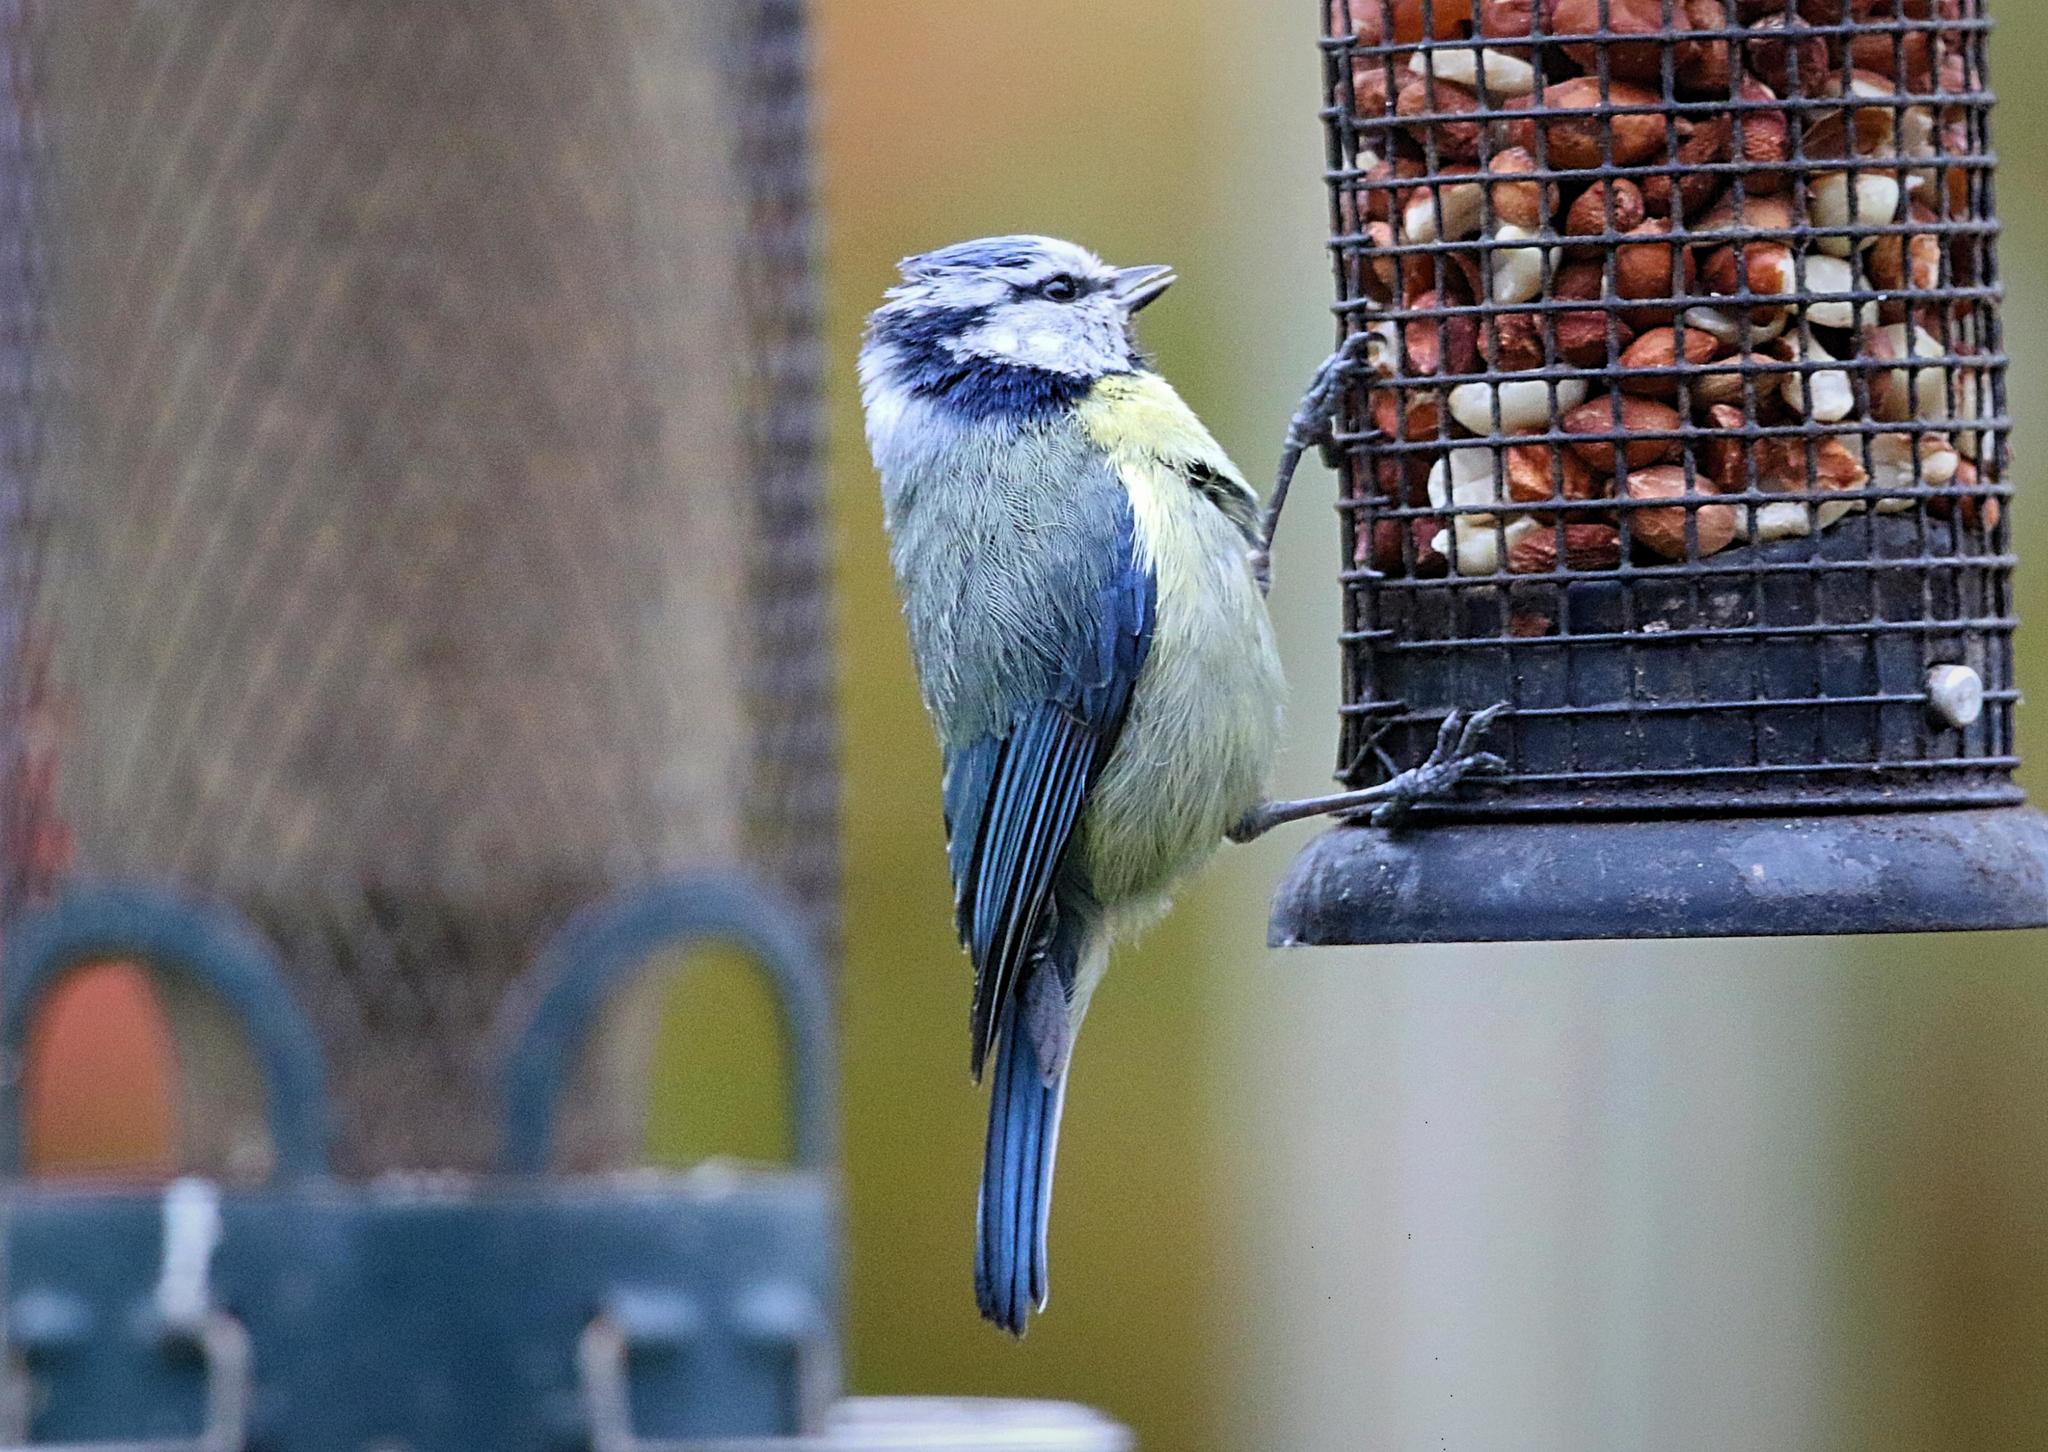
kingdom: Animalia
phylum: Chordata
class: Aves
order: Passeriformes
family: Paridae
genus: Cyanistes
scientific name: Cyanistes caeruleus
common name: Eurasian blue tit
